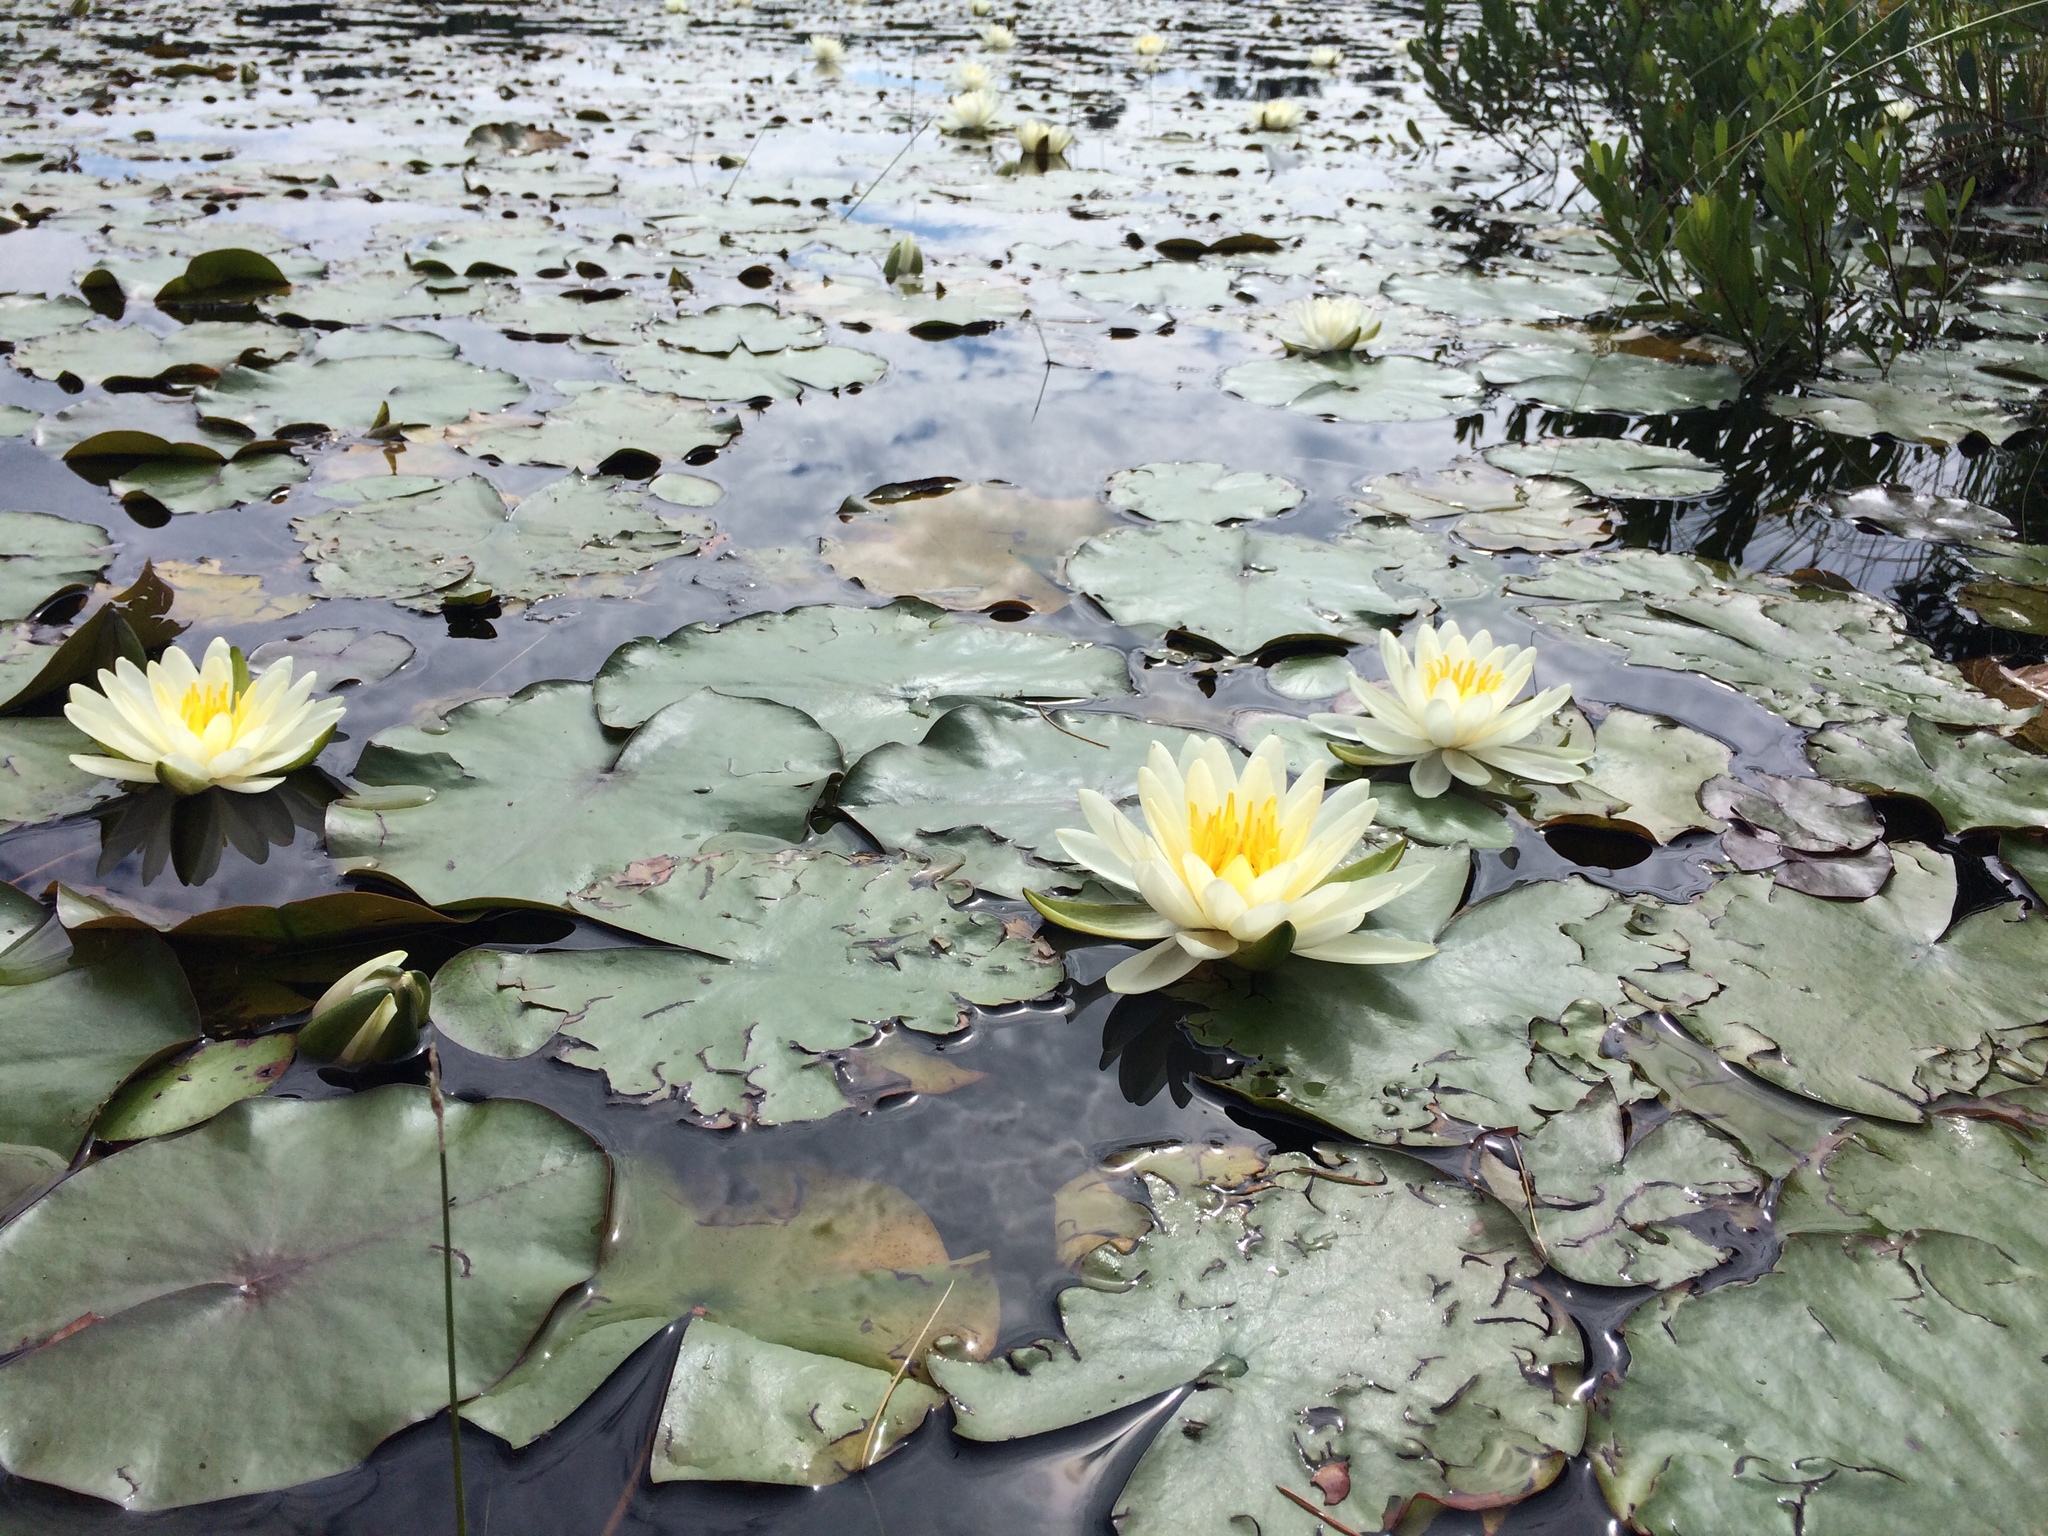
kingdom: Plantae
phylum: Tracheophyta
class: Magnoliopsida
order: Nymphaeales
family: Nymphaeaceae
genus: Nymphaea
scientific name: Nymphaea odorata
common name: Fragrant water-lily
